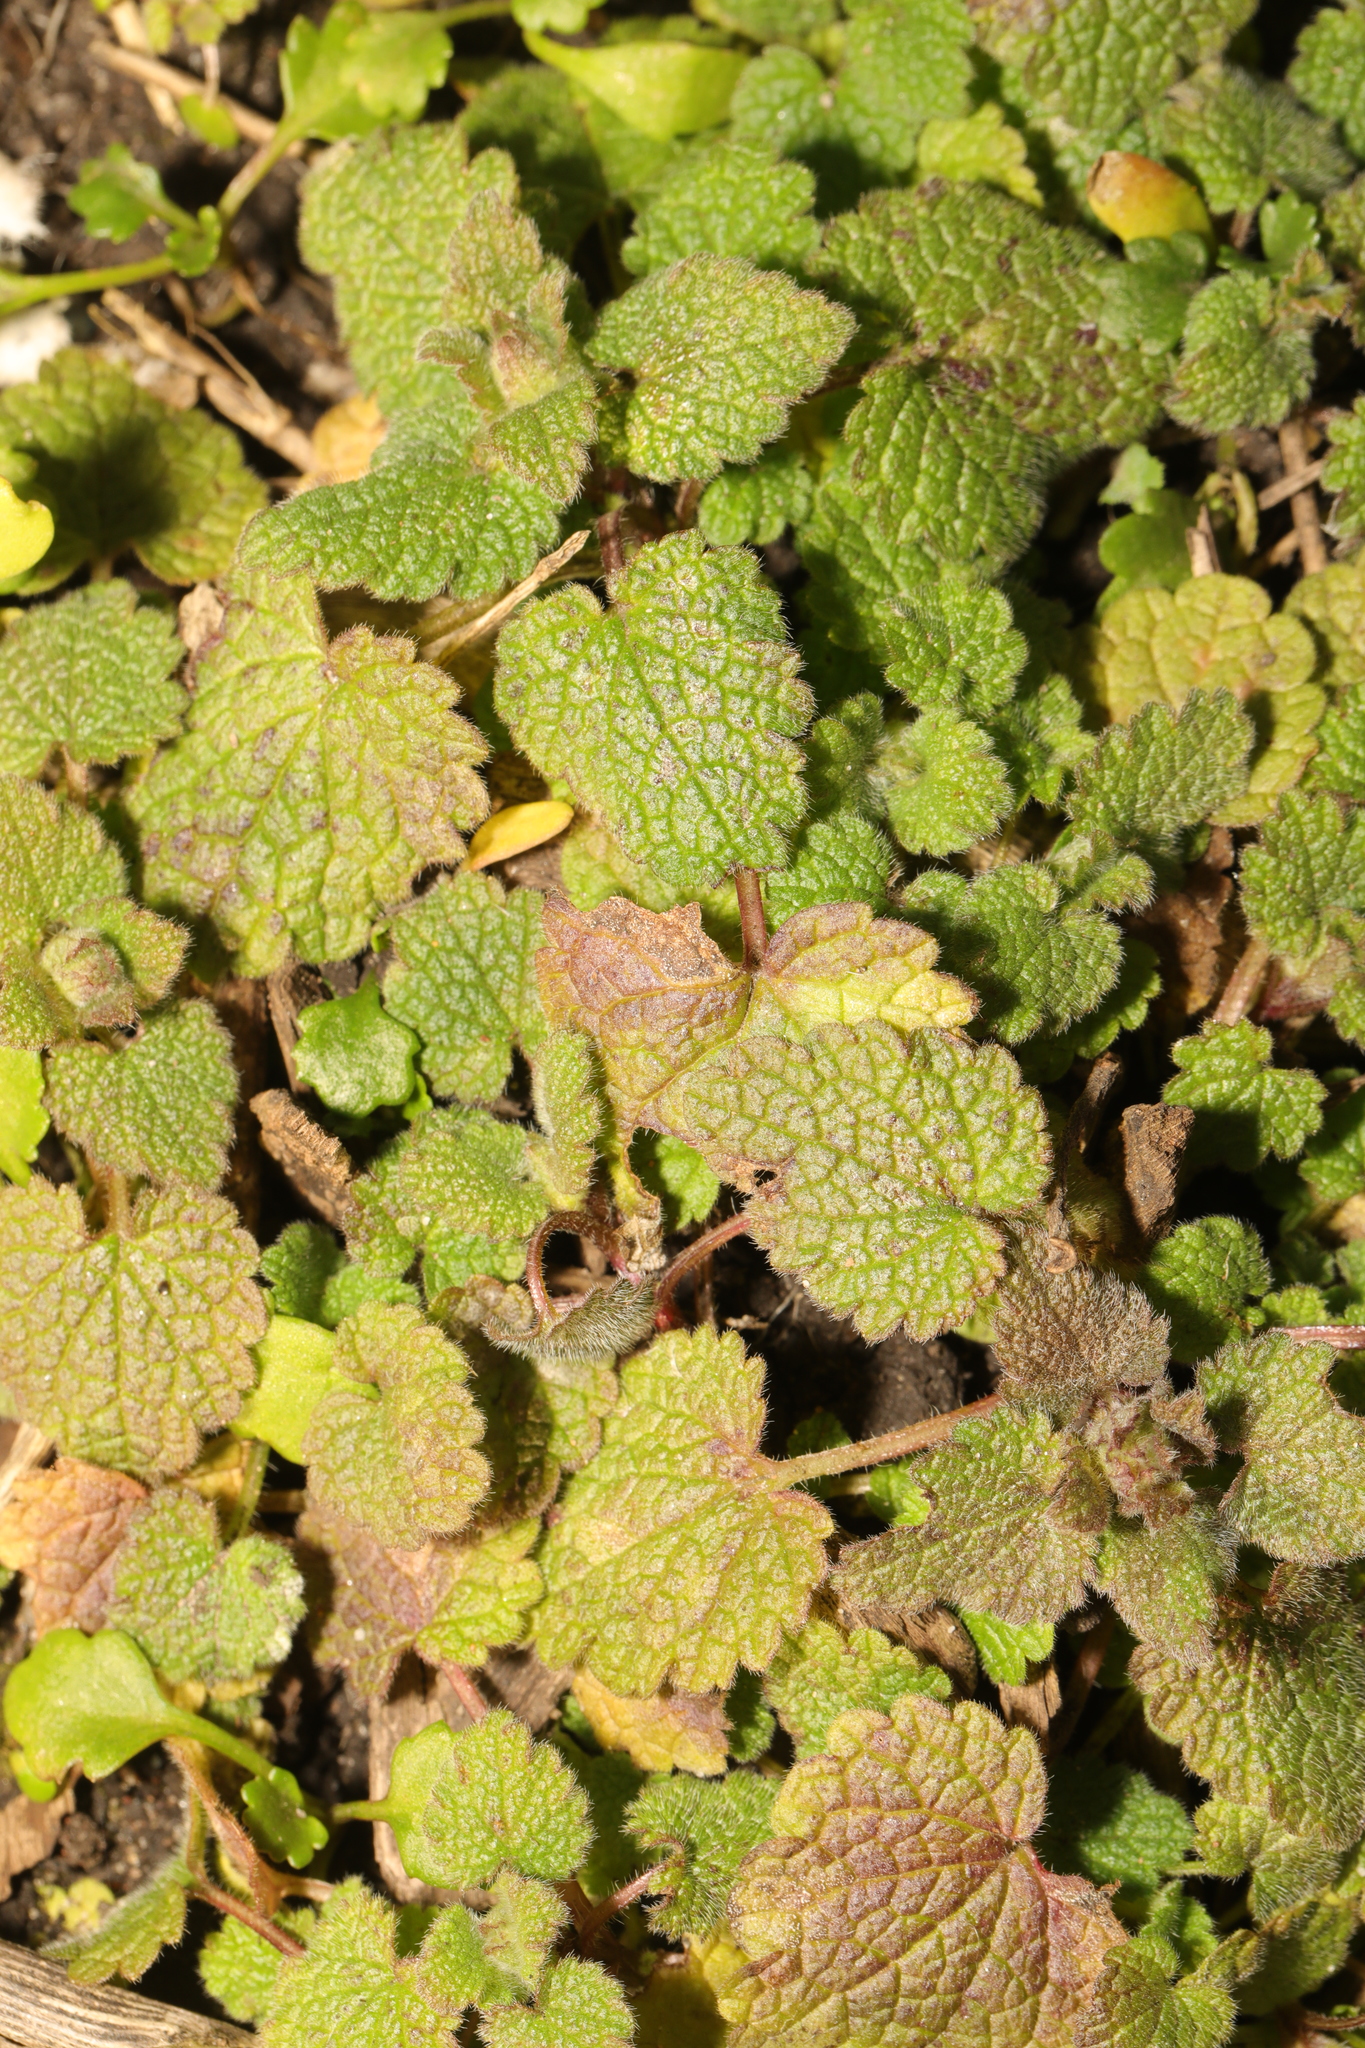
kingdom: Plantae
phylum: Tracheophyta
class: Magnoliopsida
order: Lamiales
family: Lamiaceae
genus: Lamium
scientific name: Lamium purpureum
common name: Red dead-nettle
